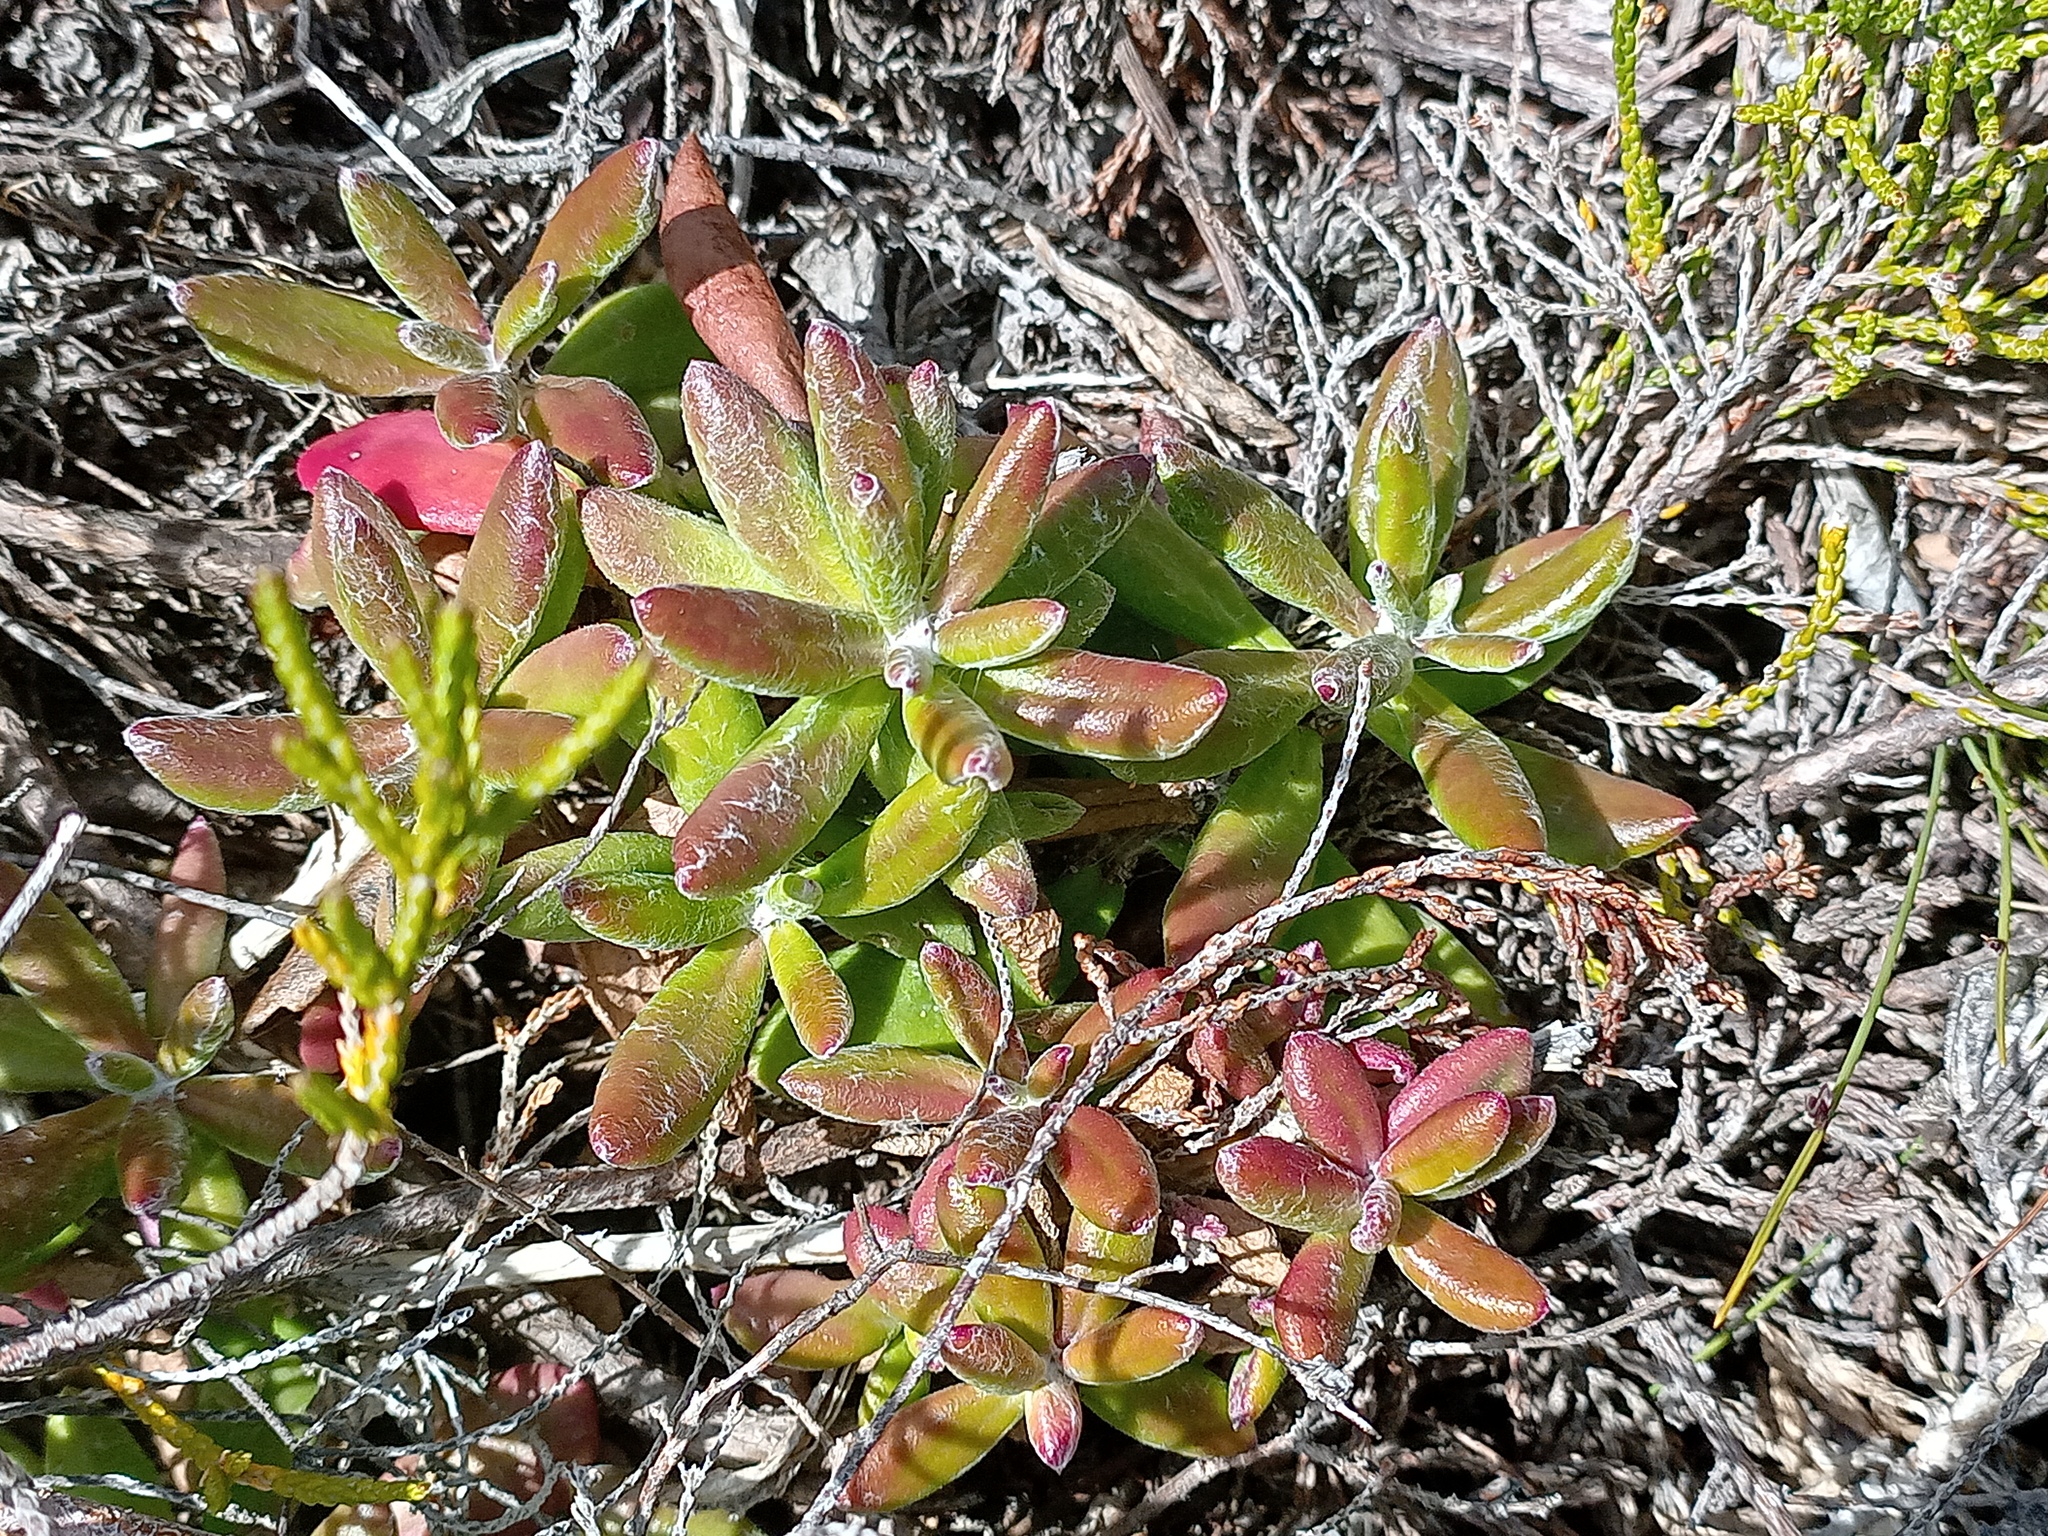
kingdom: Plantae
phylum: Tracheophyta
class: Magnoliopsida
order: Asterales
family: Asteraceae
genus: Senecio
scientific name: Senecio arniciflorus
